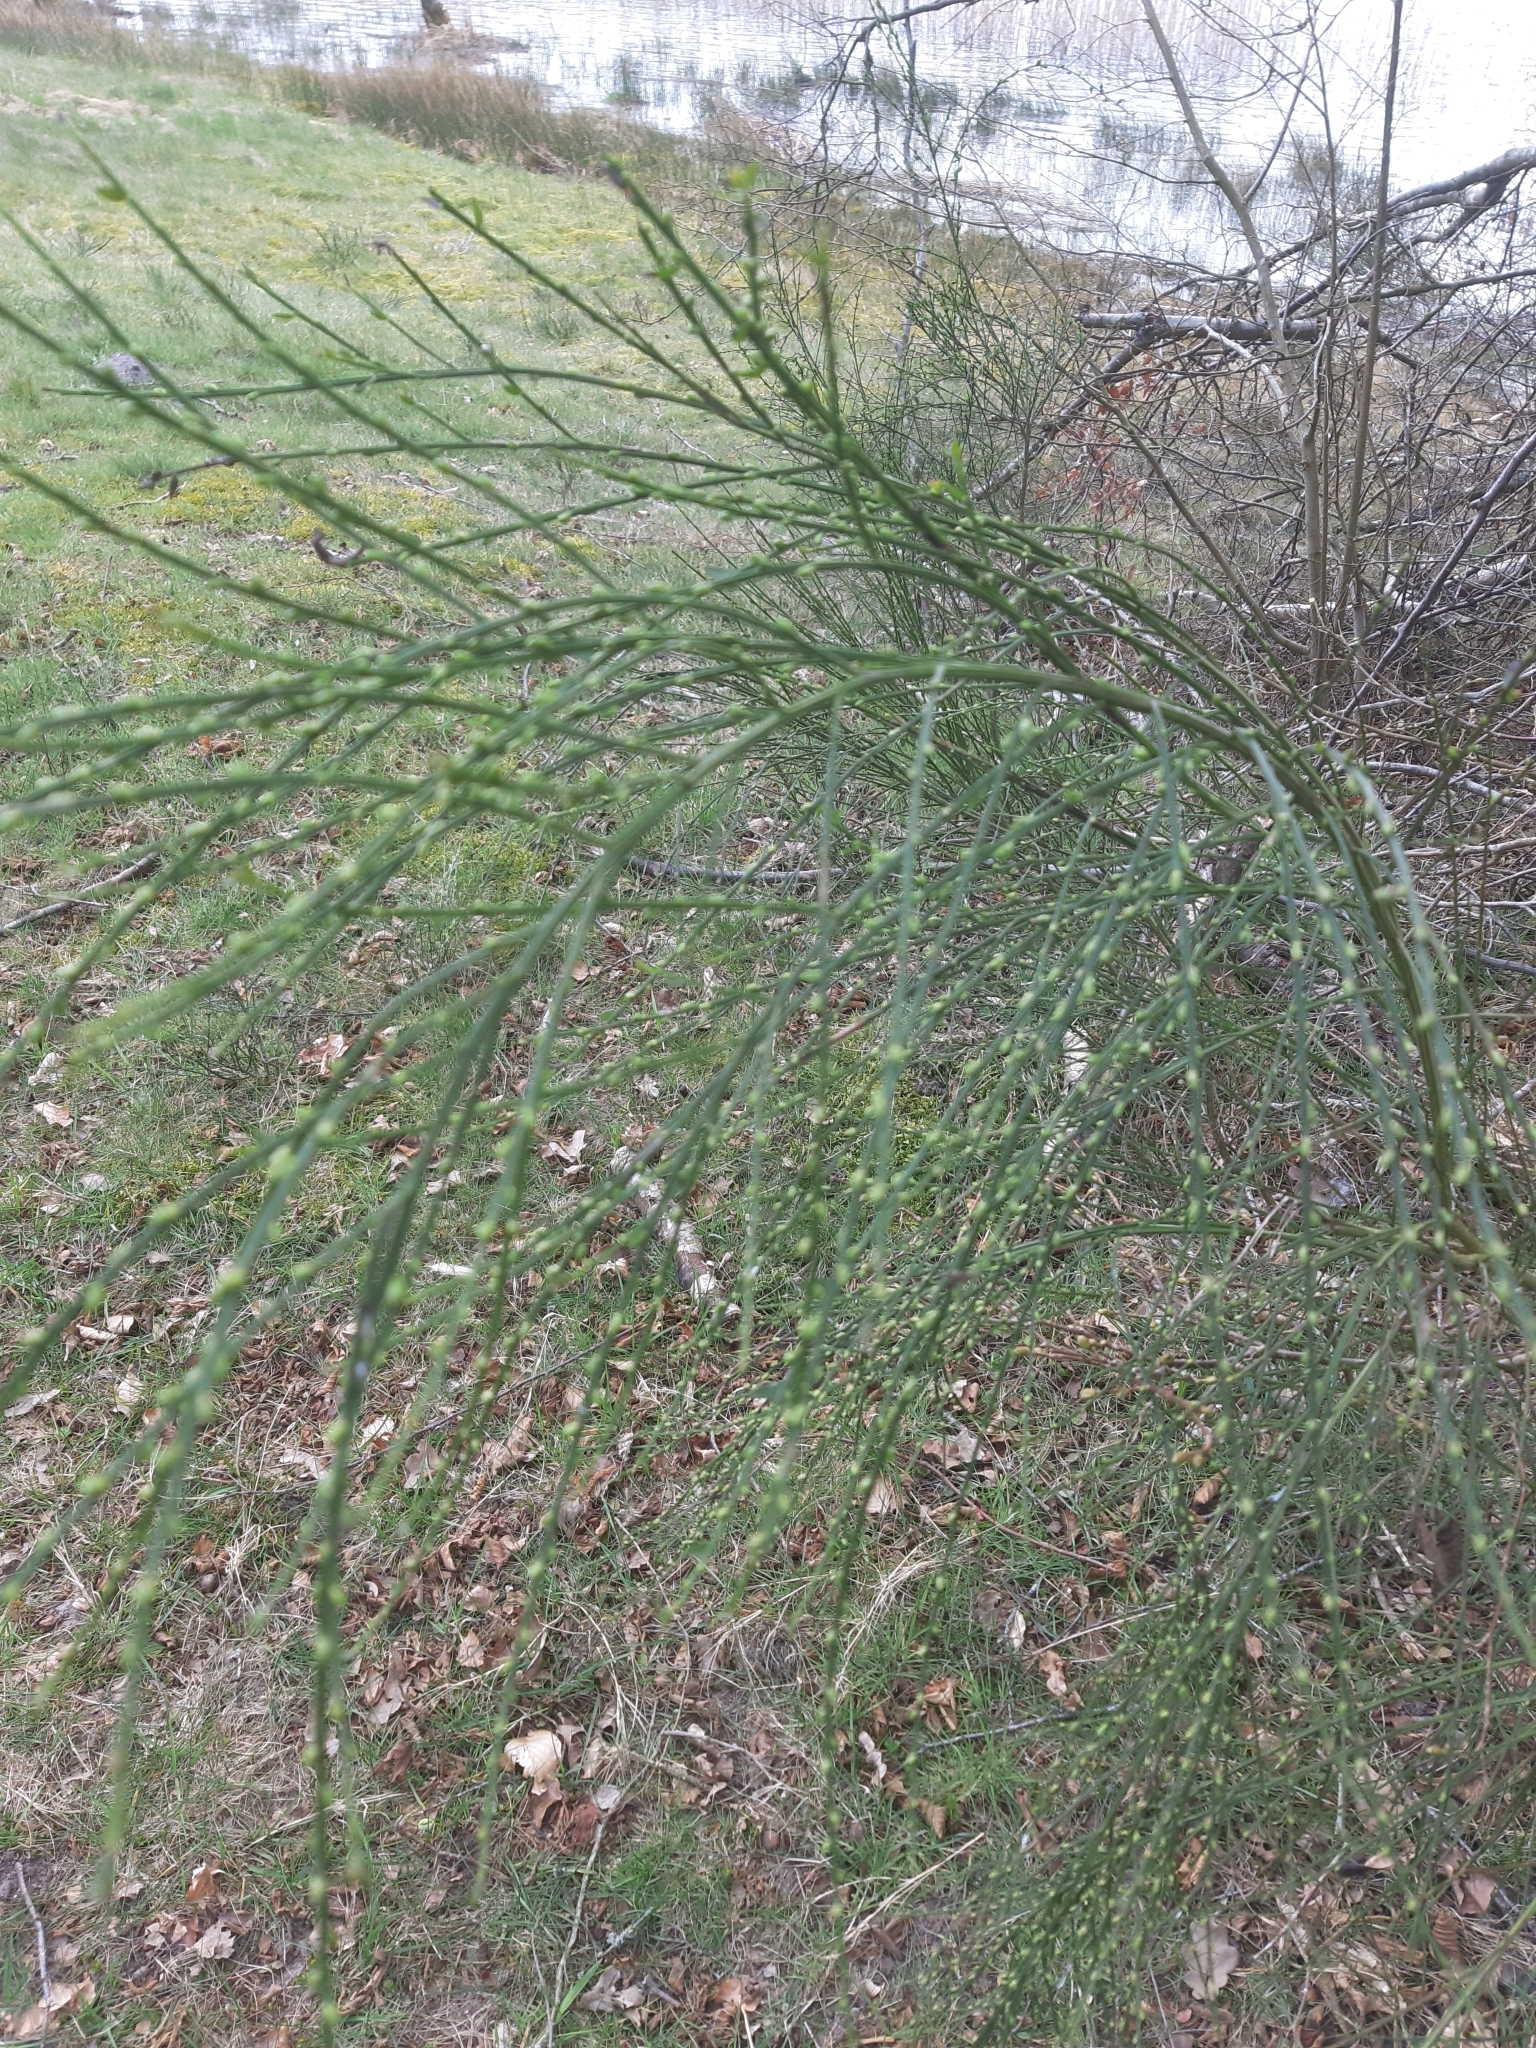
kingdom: Plantae
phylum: Tracheophyta
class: Magnoliopsida
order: Fabales
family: Fabaceae
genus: Cytisus
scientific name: Cytisus scoparius
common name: Scotch broom
